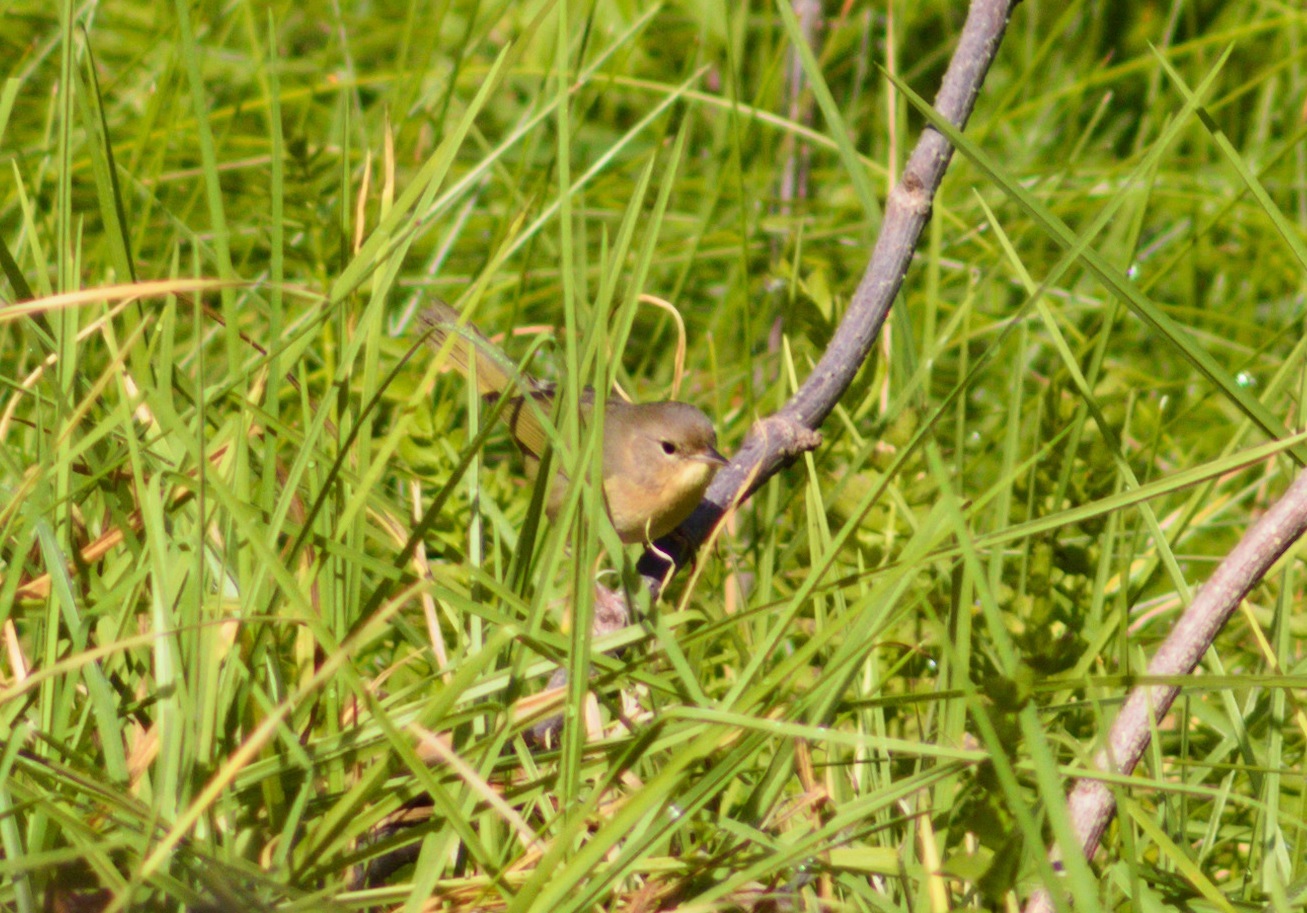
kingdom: Animalia
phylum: Chordata
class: Aves
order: Passeriformes
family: Parulidae
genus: Geothlypis
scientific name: Geothlypis trichas
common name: Common yellowthroat
